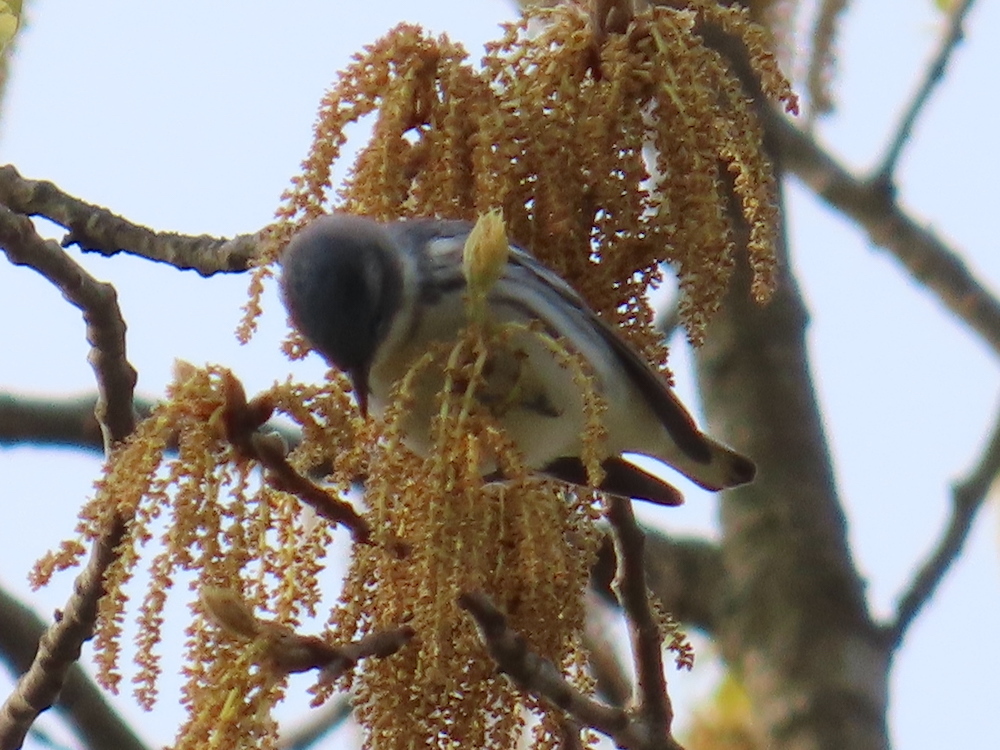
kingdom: Animalia
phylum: Chordata
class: Aves
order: Passeriformes
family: Parulidae
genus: Setophaga
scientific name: Setophaga cerulea
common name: Cerulean warbler
